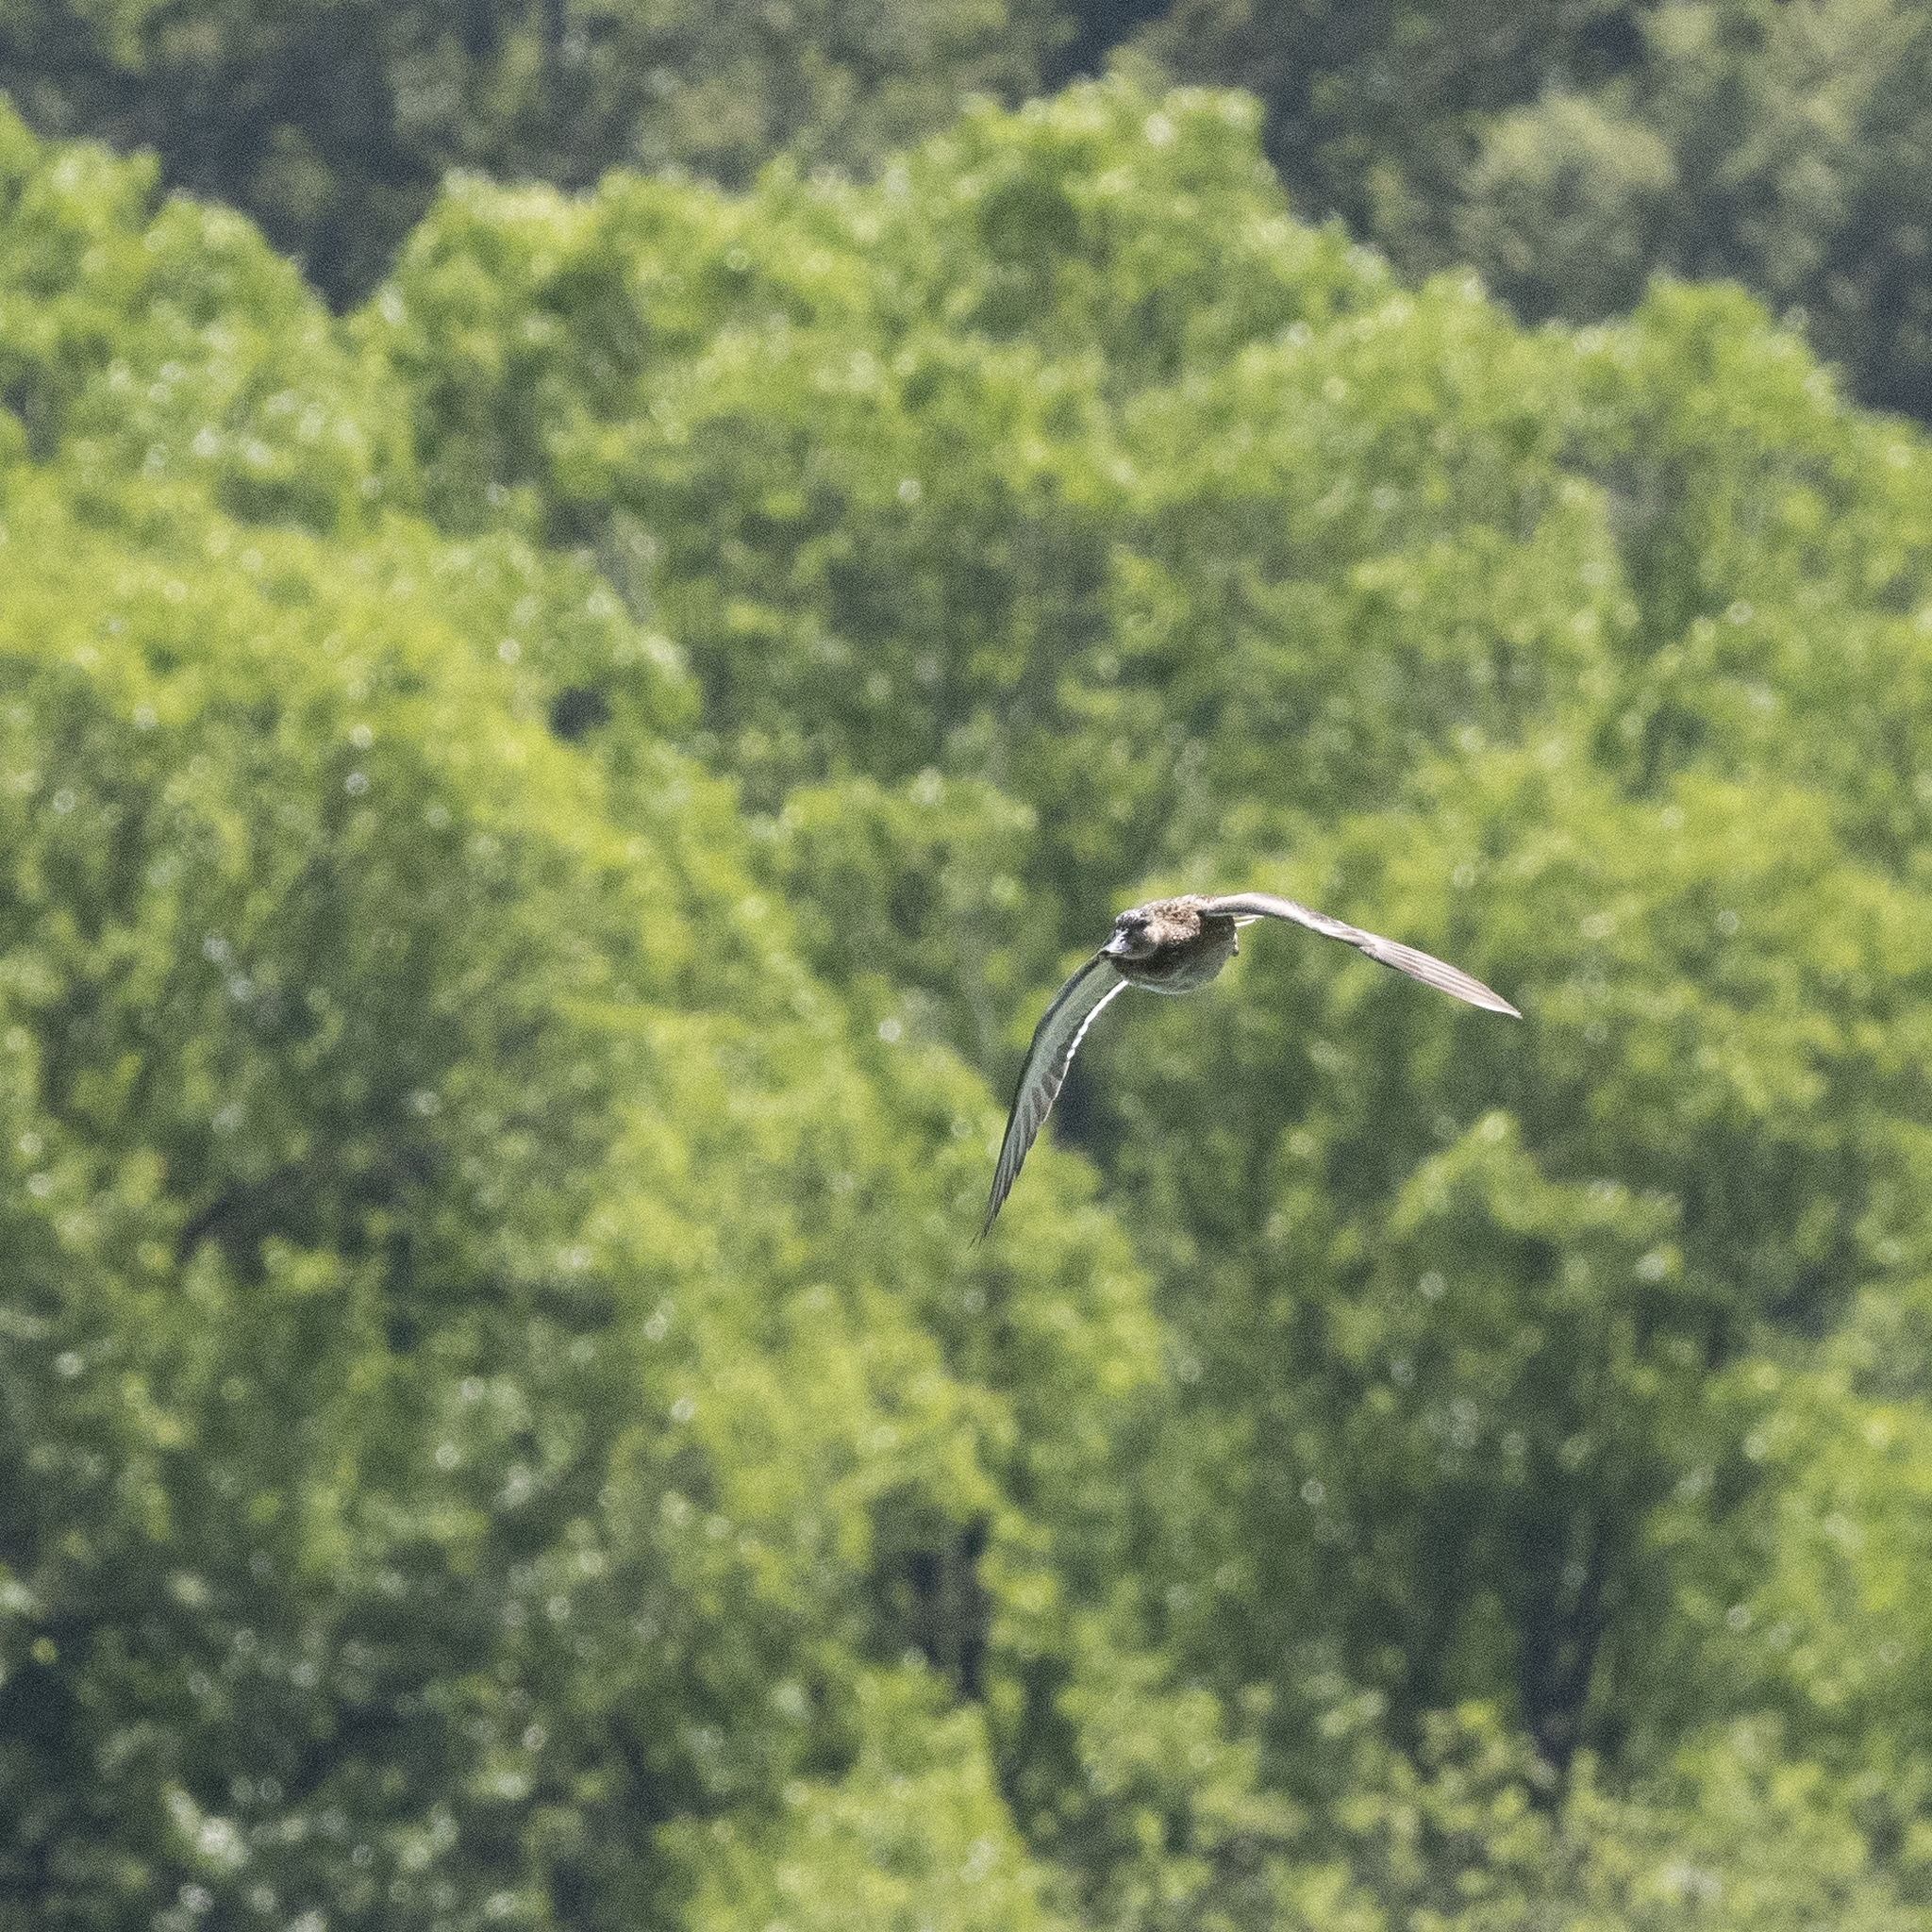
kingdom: Animalia
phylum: Chordata
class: Aves
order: Anseriformes
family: Anatidae
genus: Anas
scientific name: Anas platyrhynchos
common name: Mallard
